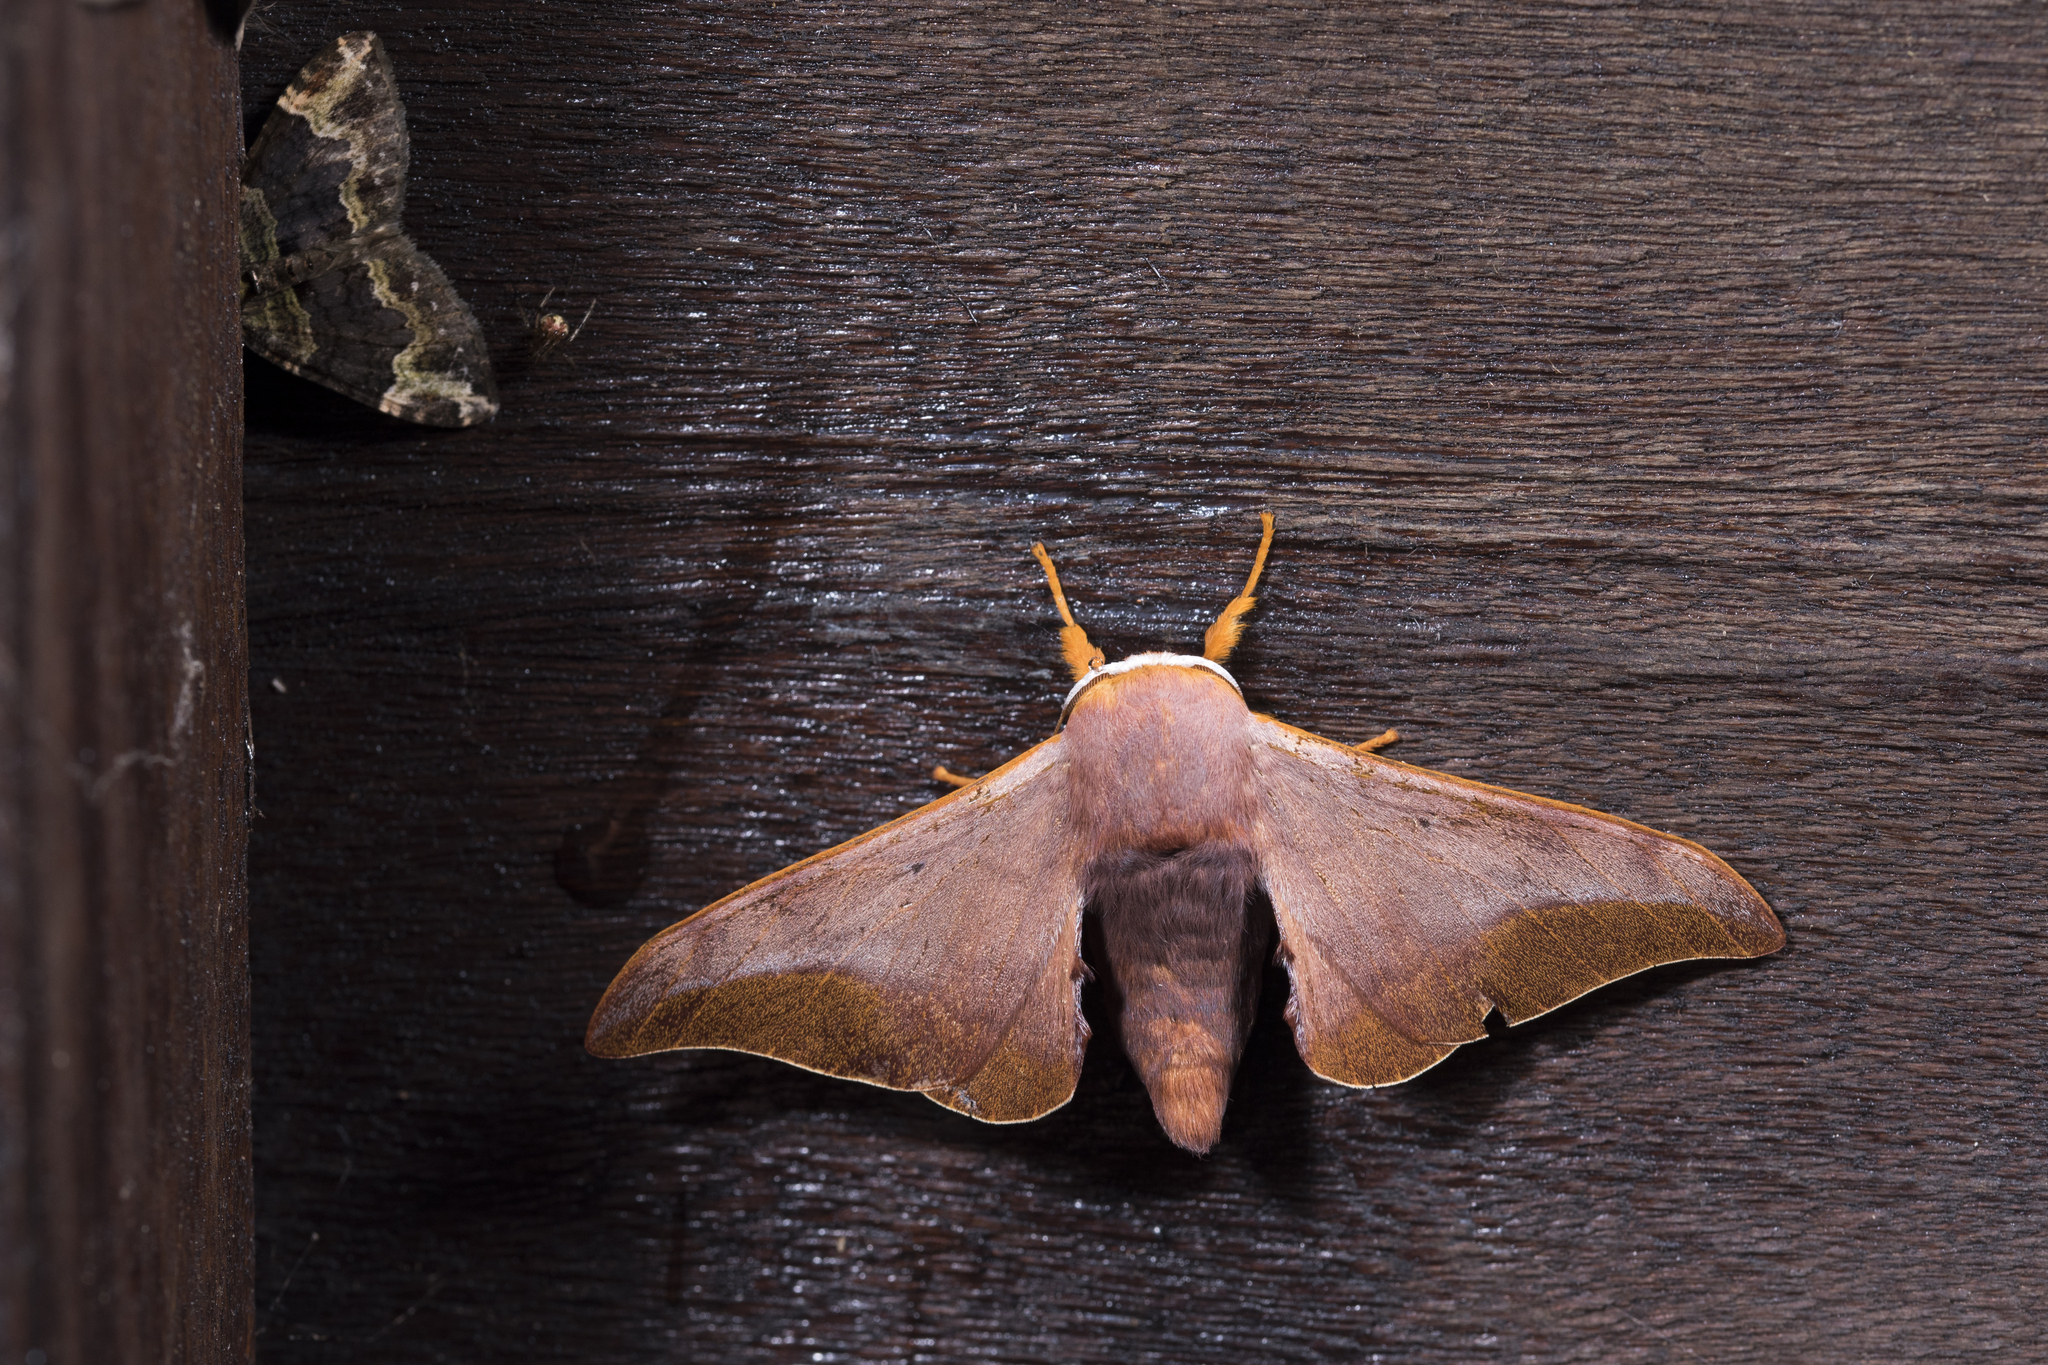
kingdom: Animalia
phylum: Arthropoda
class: Insecta
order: Lepidoptera
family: Endromidae
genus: Comparmustilia
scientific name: Comparmustilia gerontica
